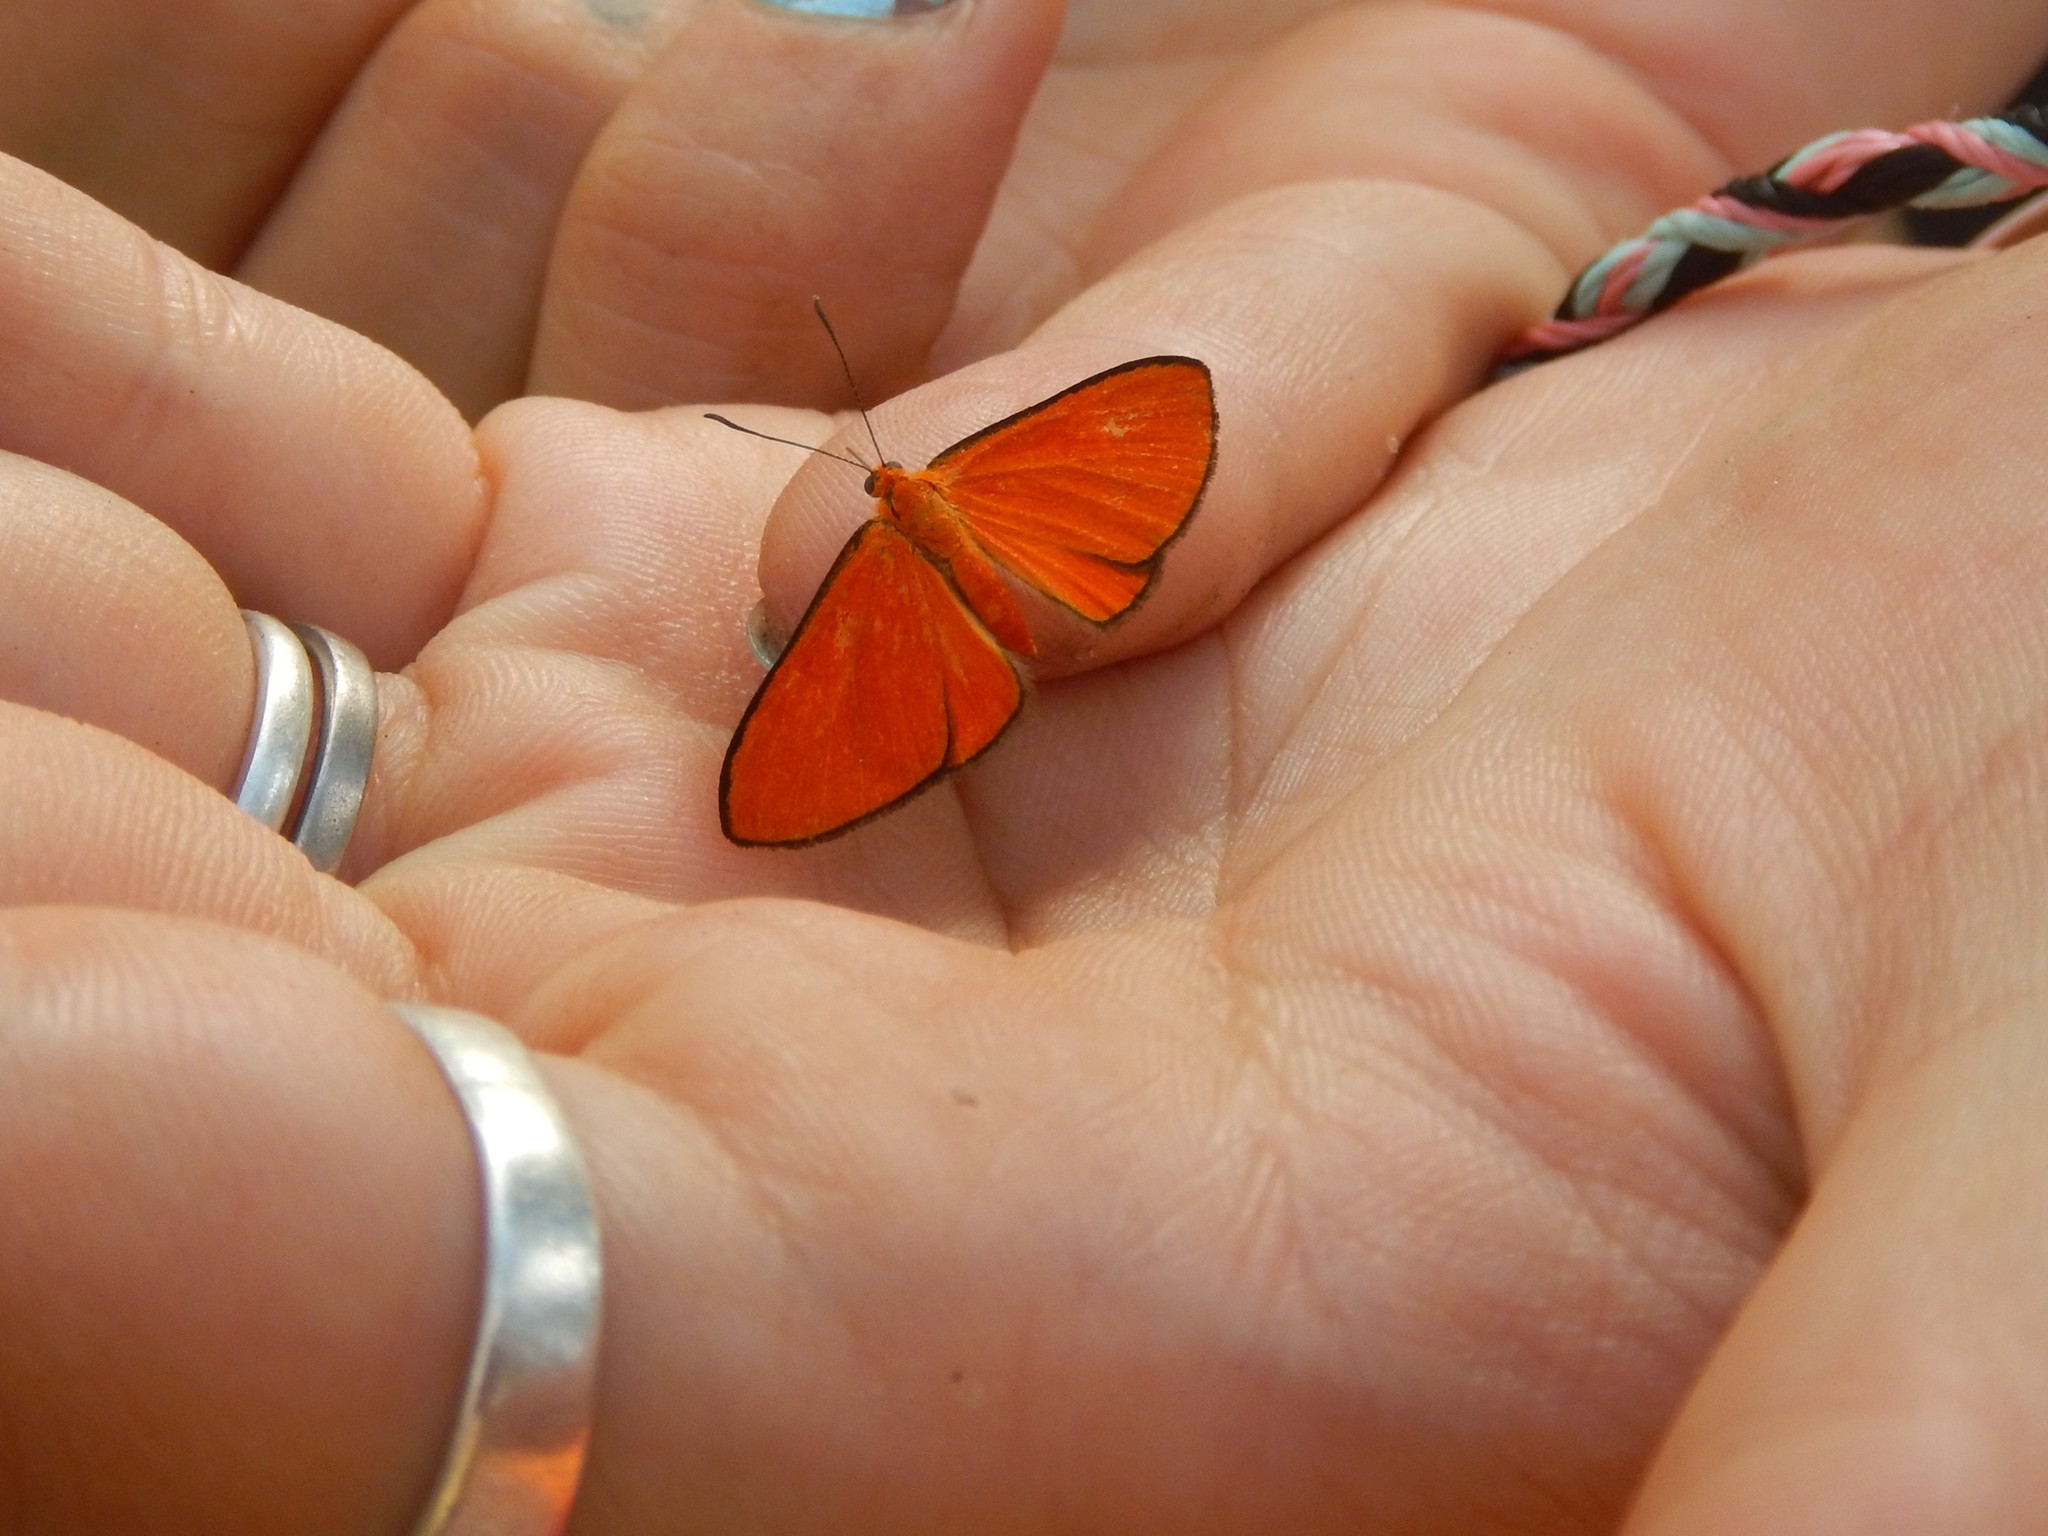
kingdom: Animalia
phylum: Arthropoda
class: Insecta
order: Lepidoptera
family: Lycaenidae
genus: Mesene
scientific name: Mesene epaphus
